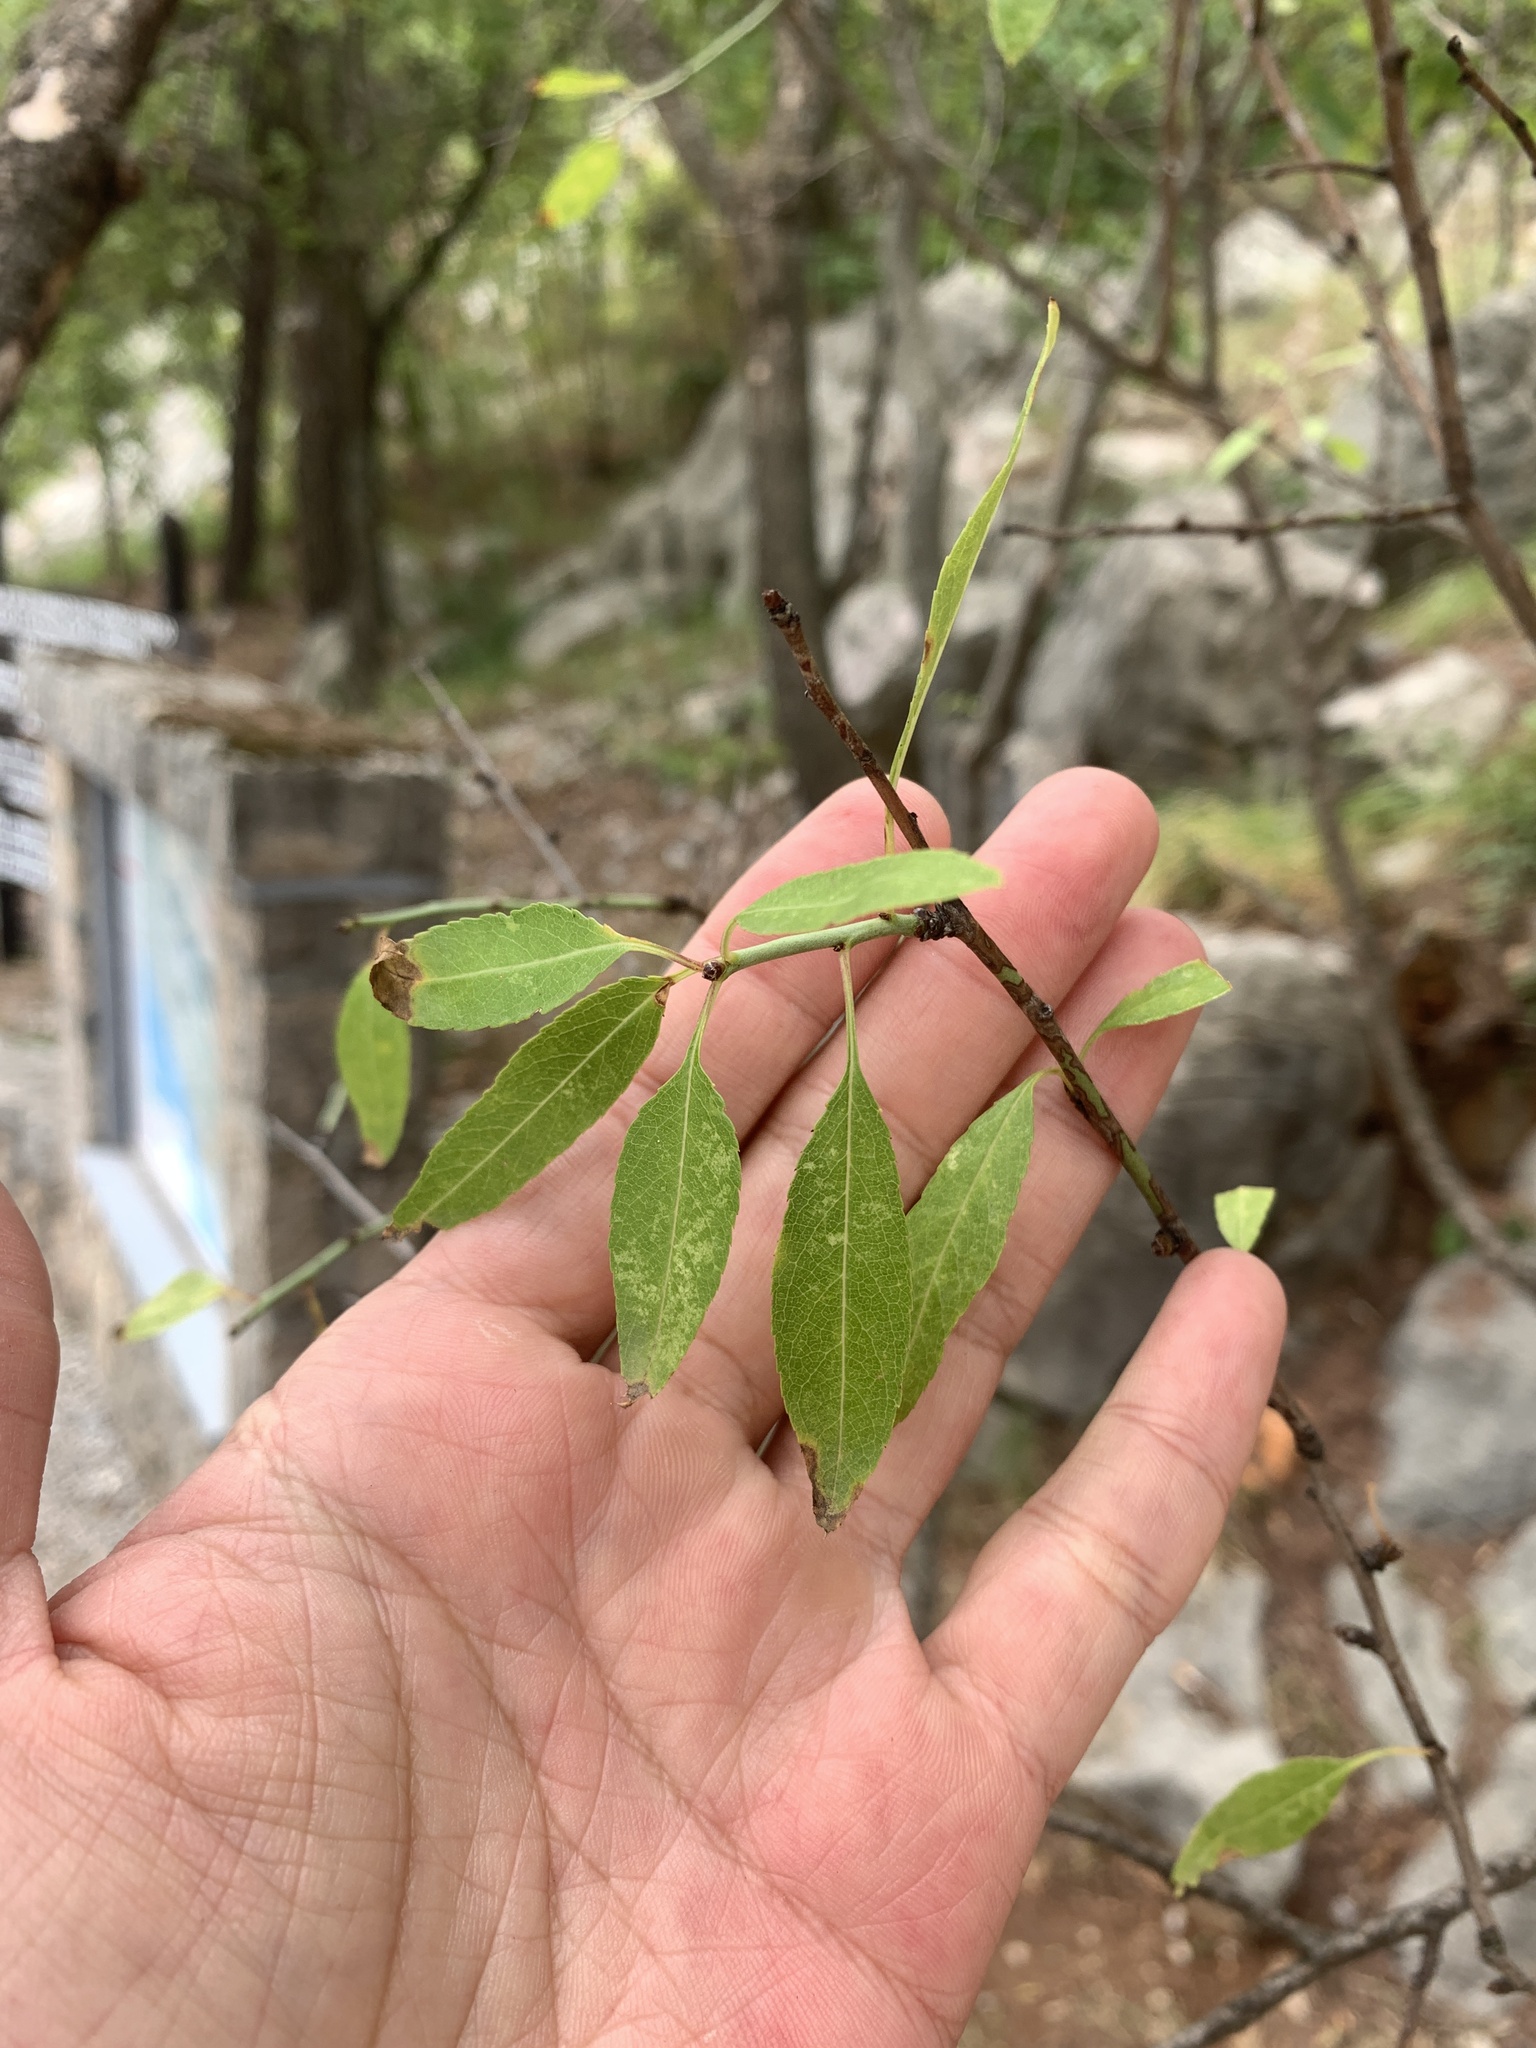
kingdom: Plantae
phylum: Tracheophyta
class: Magnoliopsida
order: Rosales
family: Rosaceae
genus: Prunus
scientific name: Prunus amygdalus
